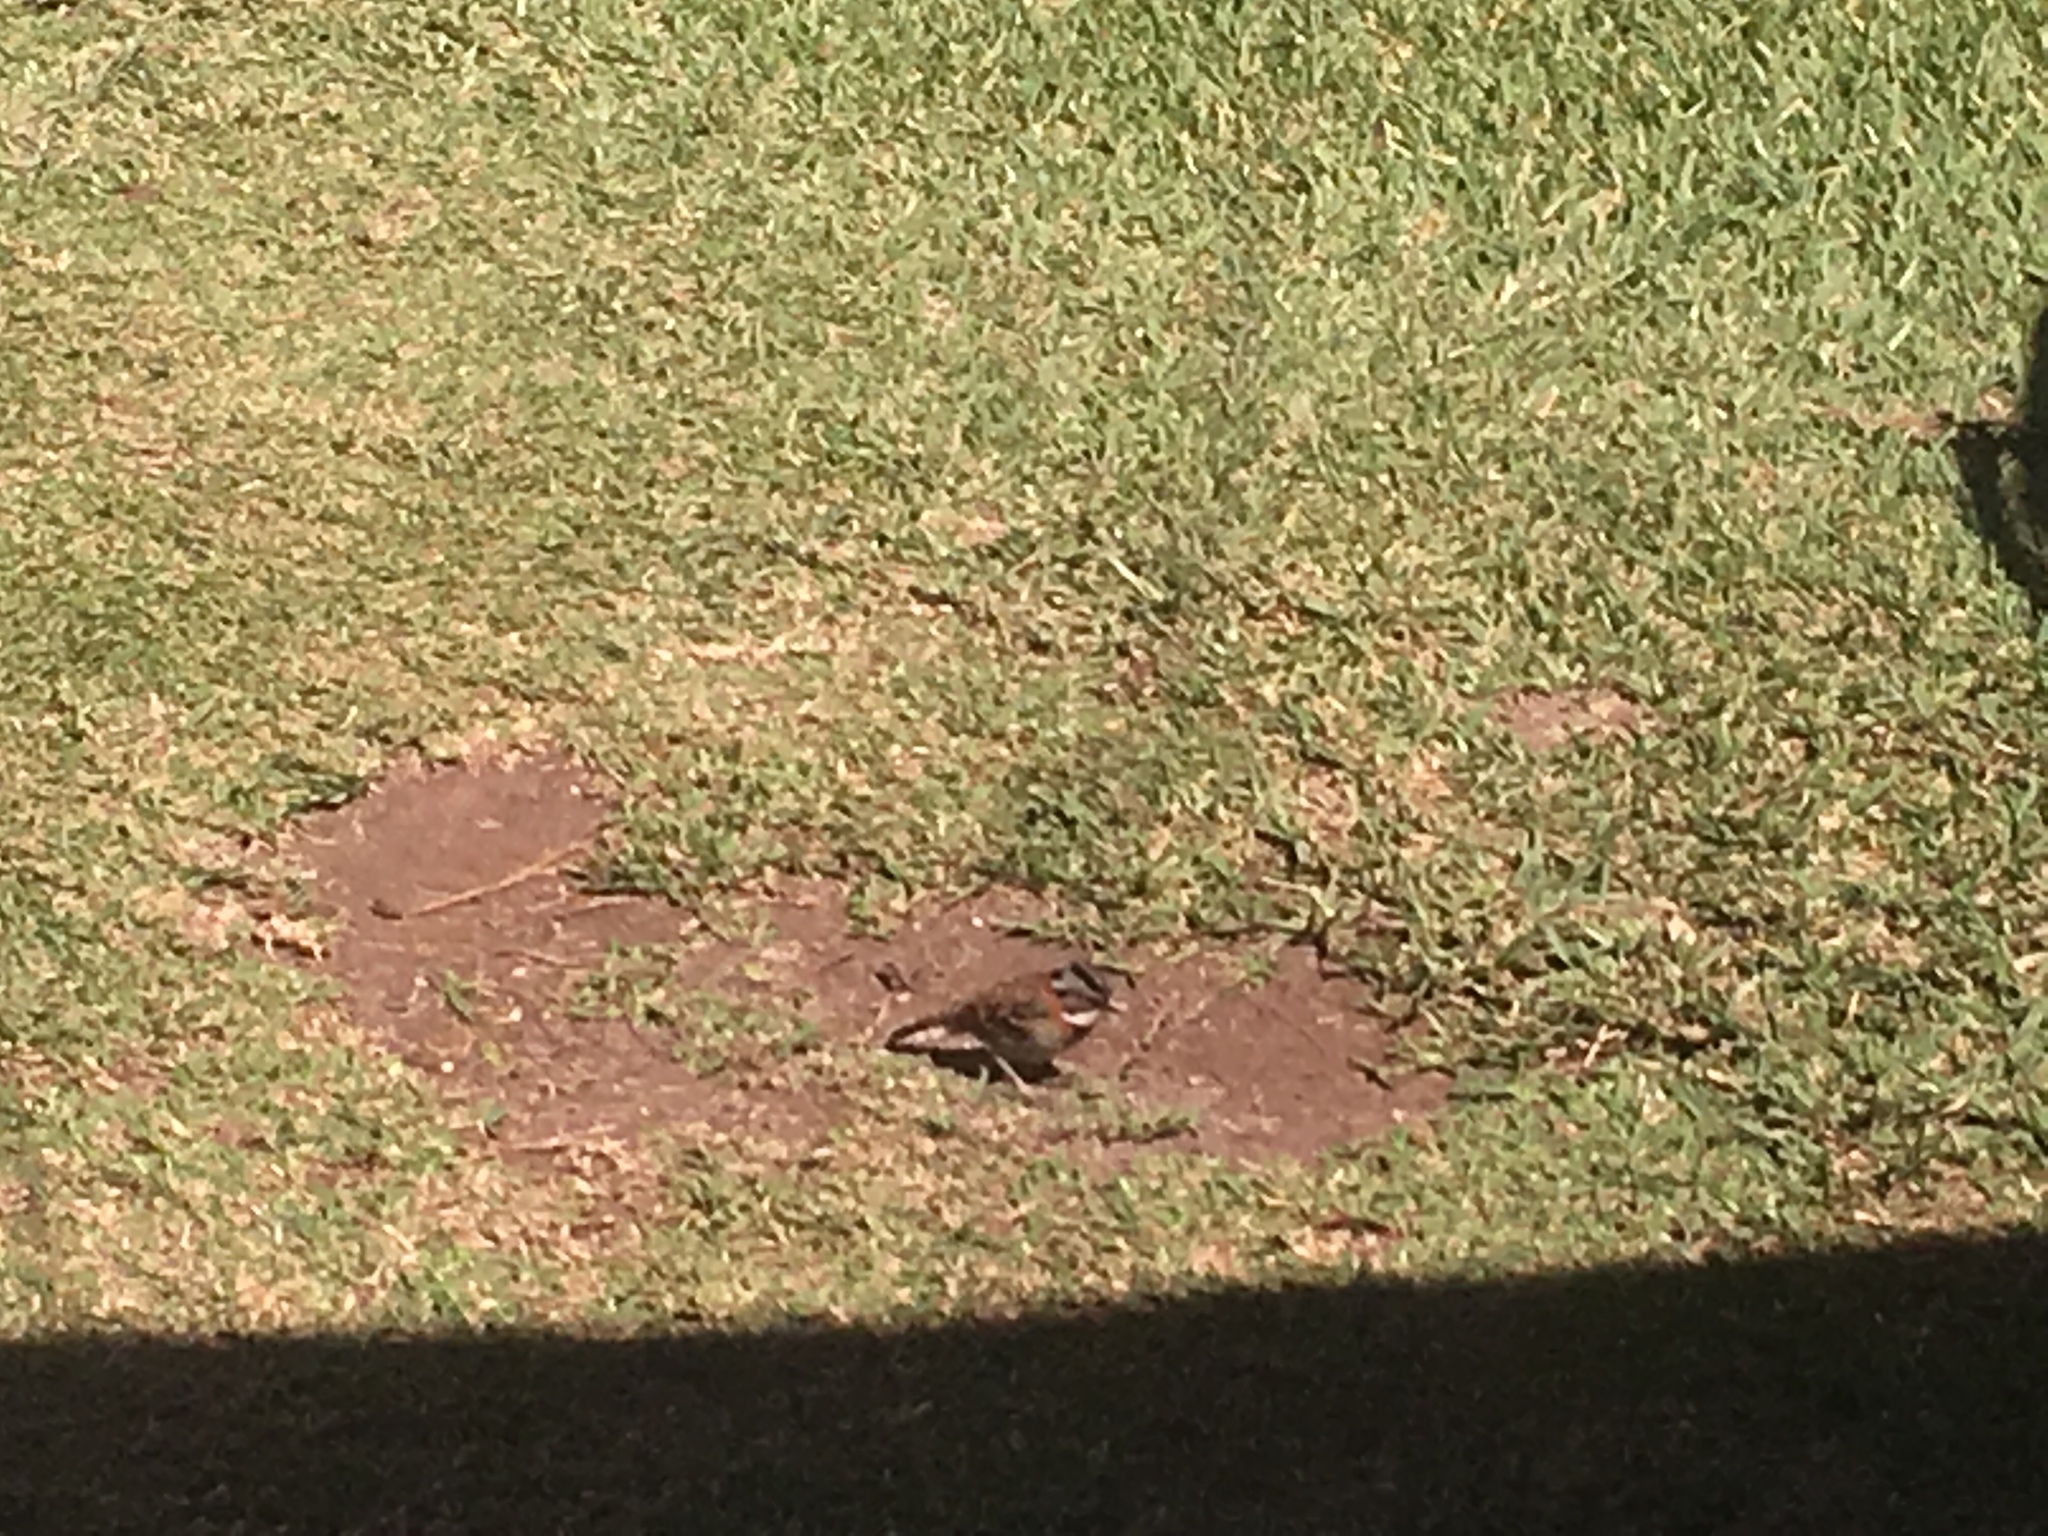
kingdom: Animalia
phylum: Chordata
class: Aves
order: Passeriformes
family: Passerellidae
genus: Zonotrichia
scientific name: Zonotrichia capensis
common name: Rufous-collared sparrow
